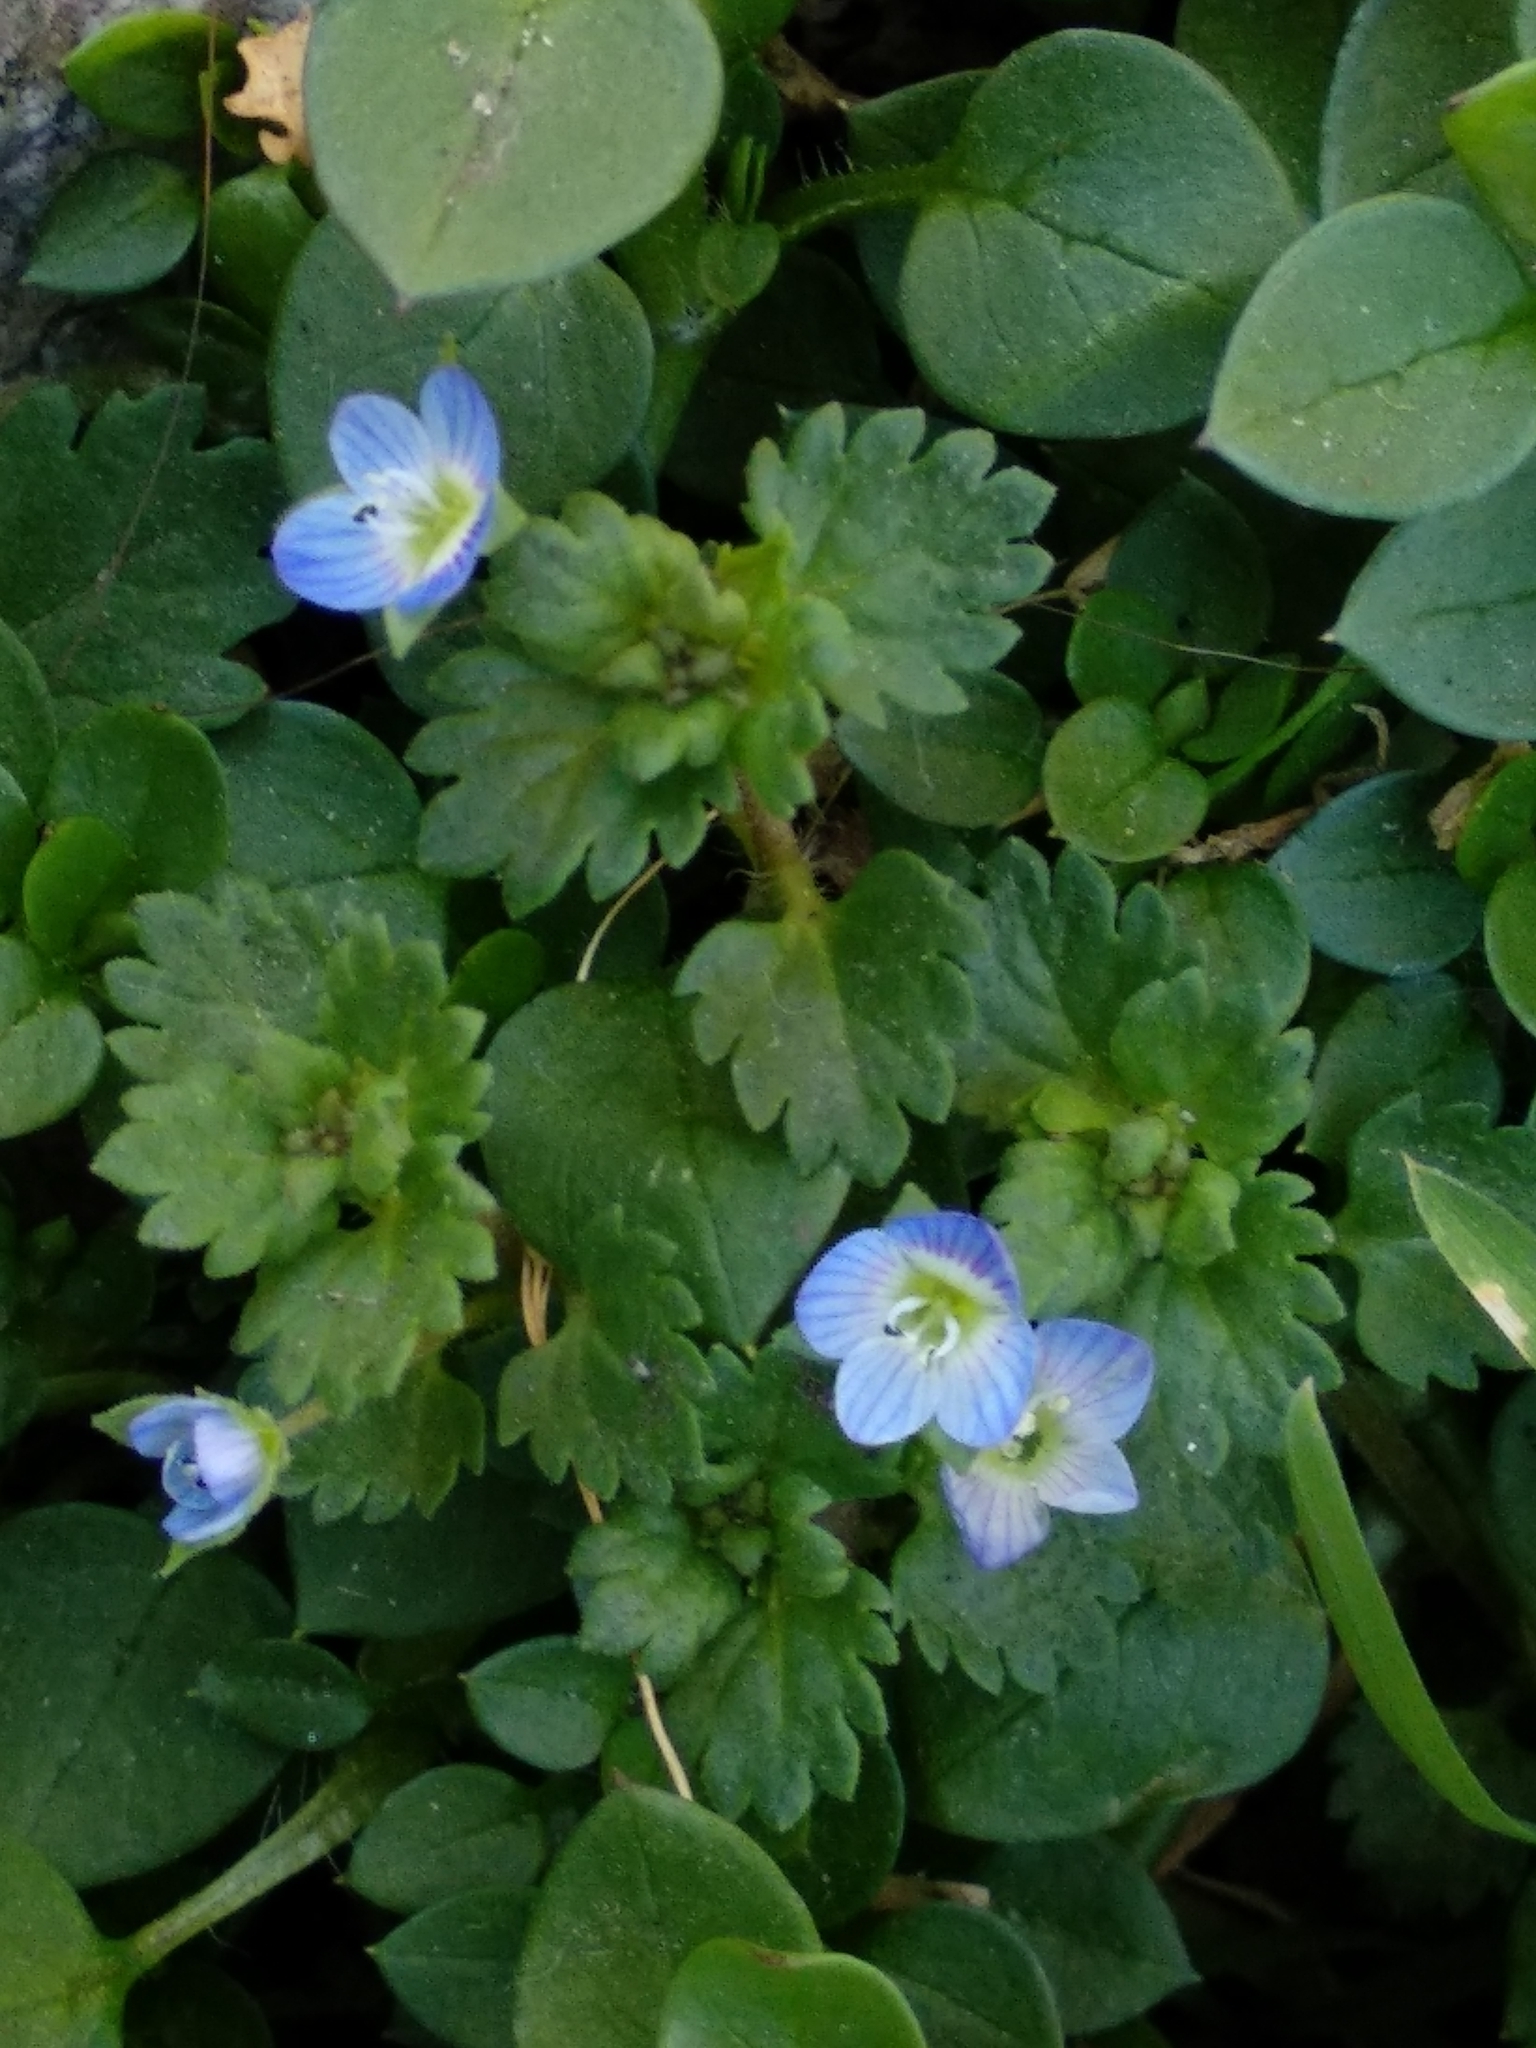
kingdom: Plantae
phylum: Tracheophyta
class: Magnoliopsida
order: Lamiales
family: Plantaginaceae
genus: Veronica
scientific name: Veronica persica
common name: Common field-speedwell
